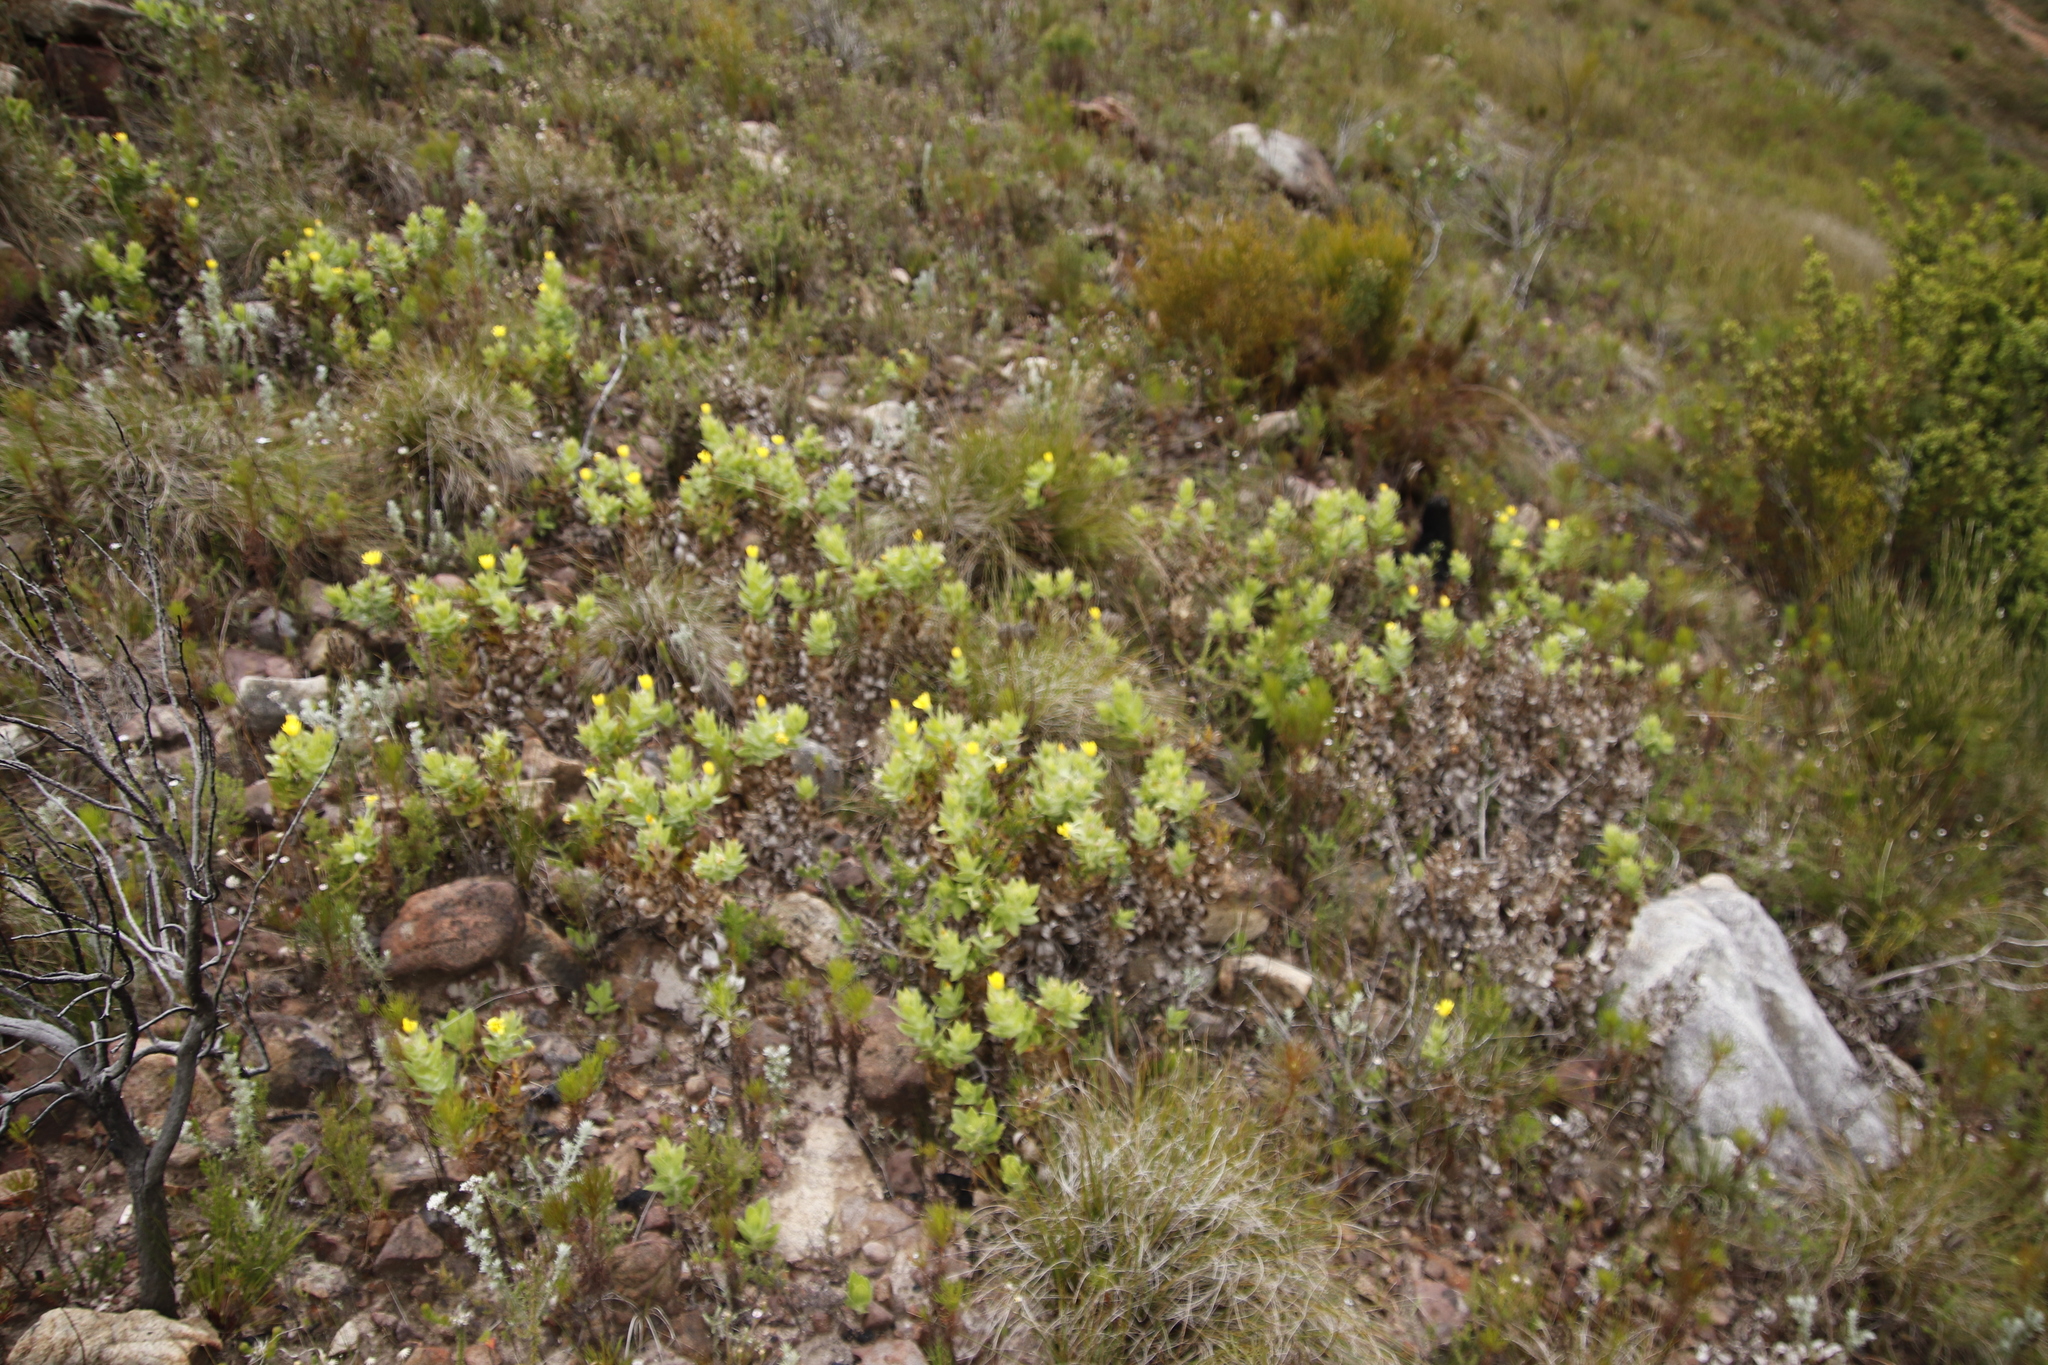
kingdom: Plantae
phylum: Tracheophyta
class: Magnoliopsida
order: Asterales
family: Asteraceae
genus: Osteospermum
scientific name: Osteospermum ilicifolium
